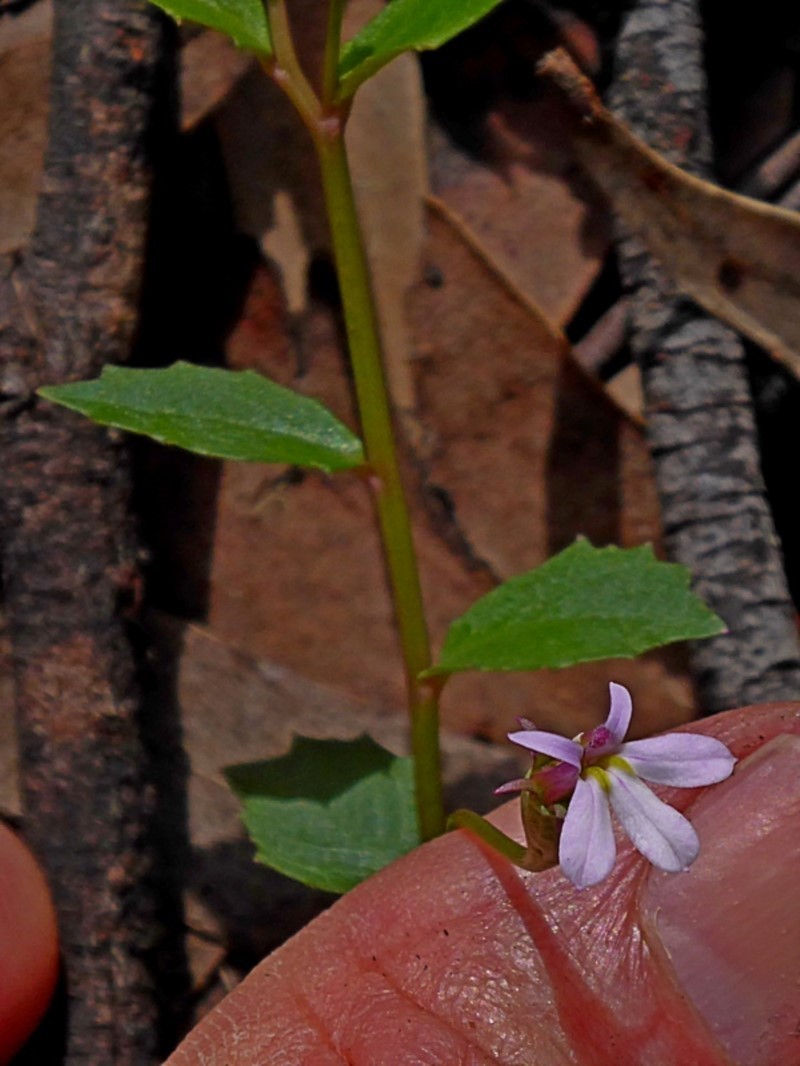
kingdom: Plantae
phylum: Tracheophyta
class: Magnoliopsida
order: Asterales
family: Campanulaceae
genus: Lobelia
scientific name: Lobelia purpurascens
